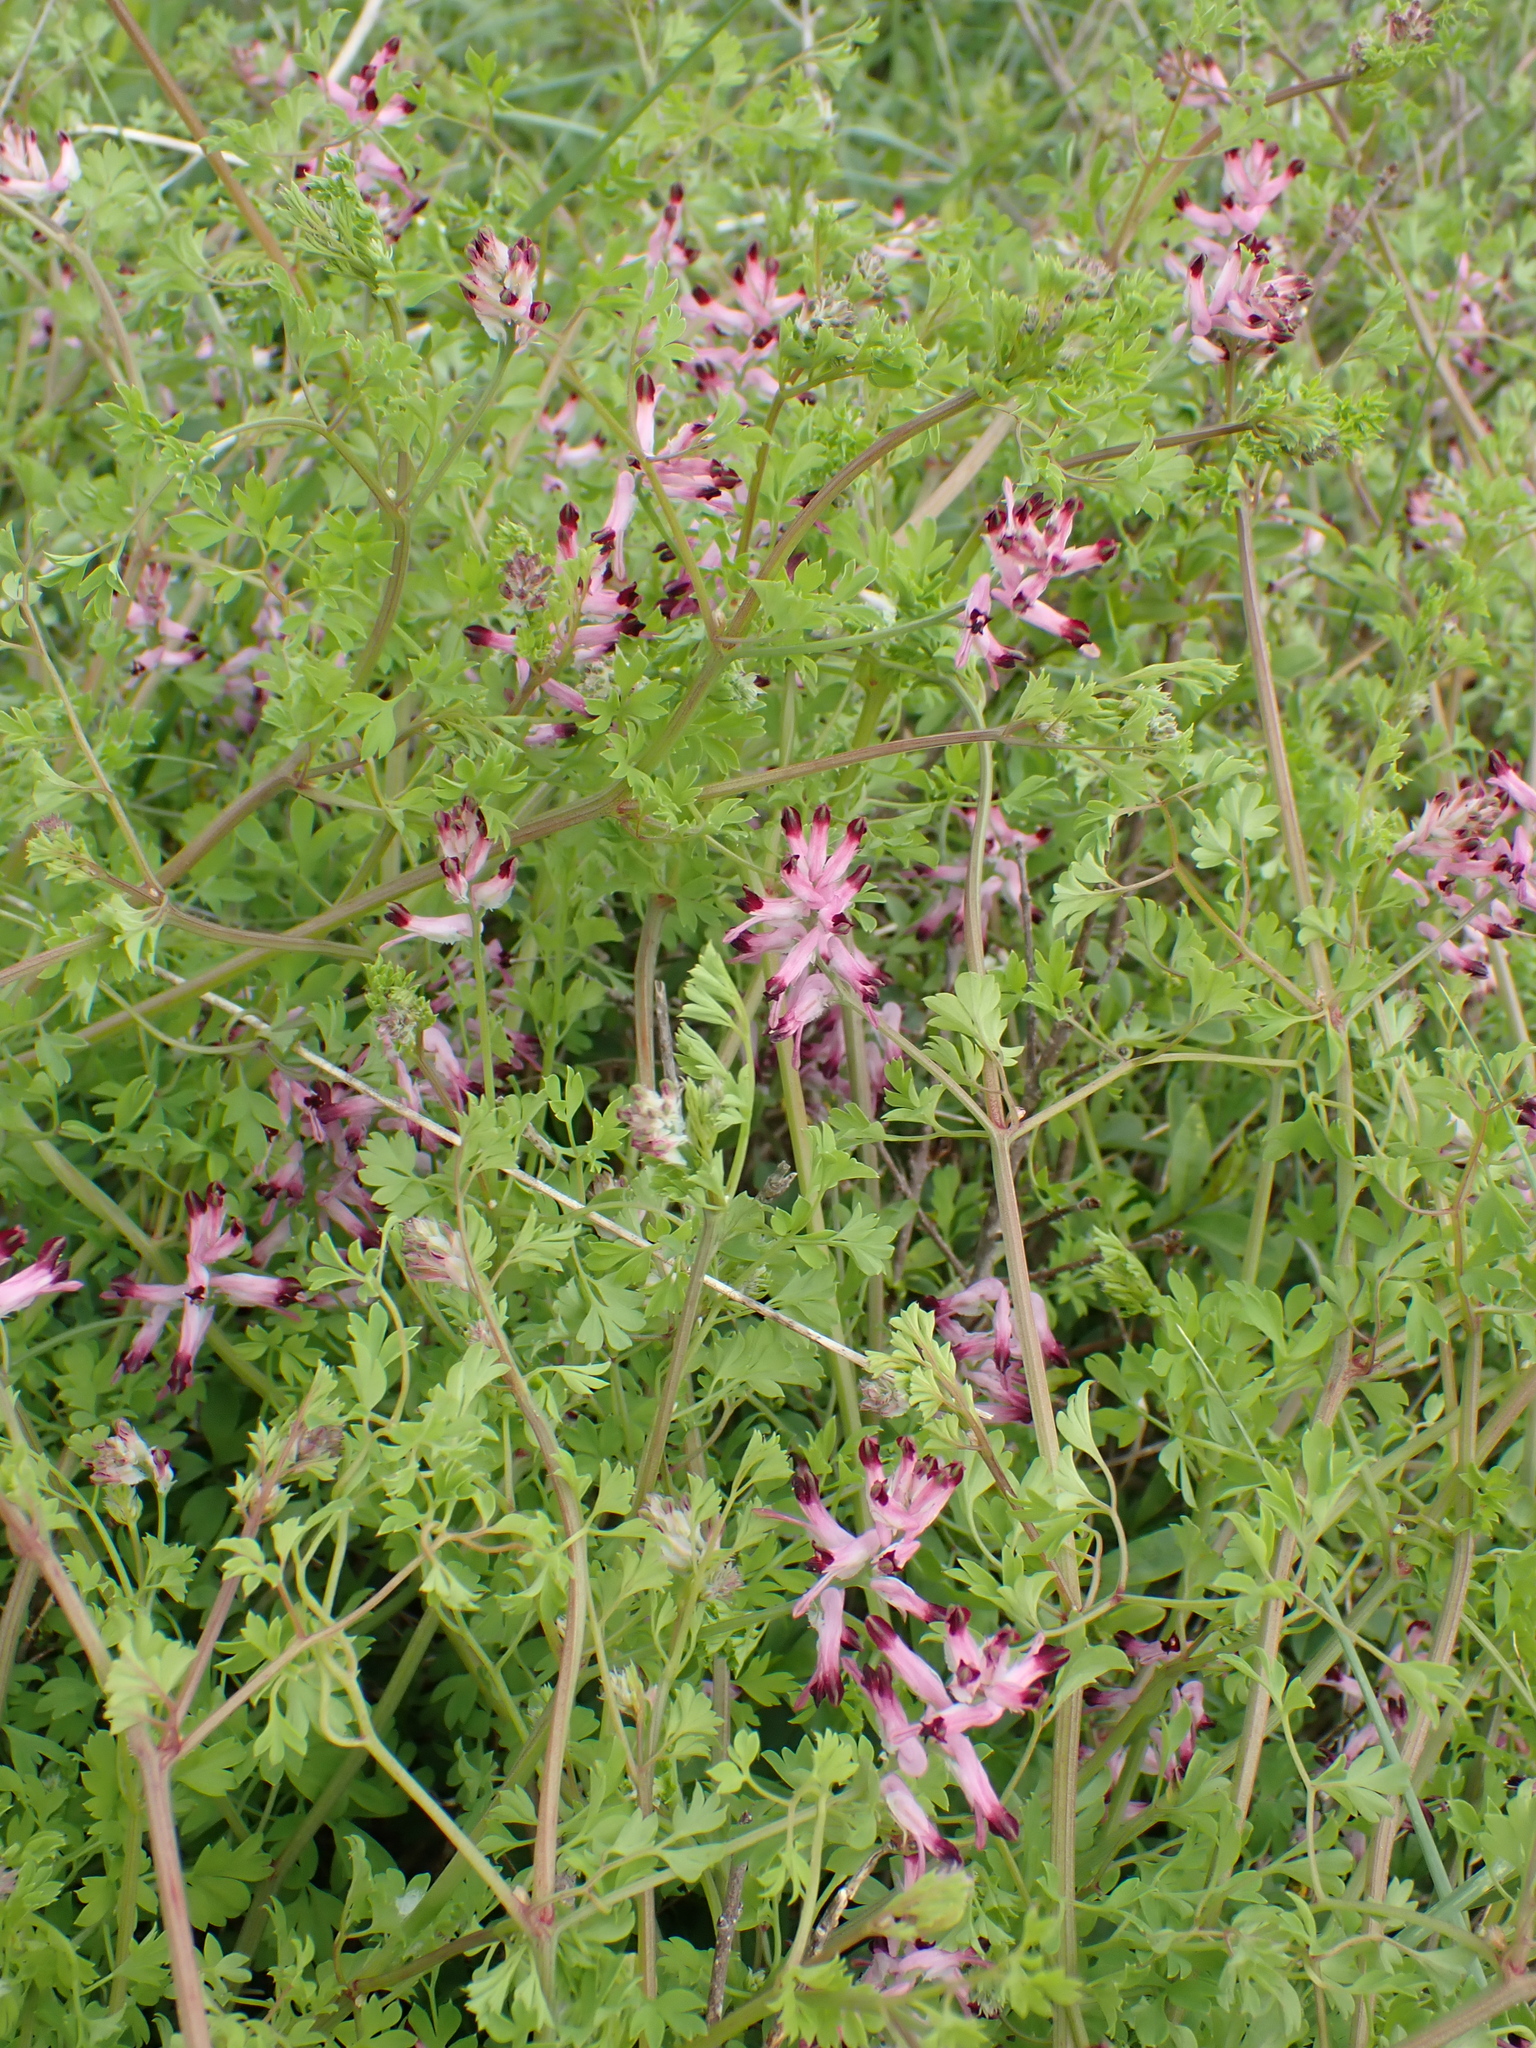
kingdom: Plantae
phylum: Tracheophyta
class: Magnoliopsida
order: Ranunculales
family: Papaveraceae
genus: Fumaria
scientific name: Fumaria muralis
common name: Common ramping-fumitory
